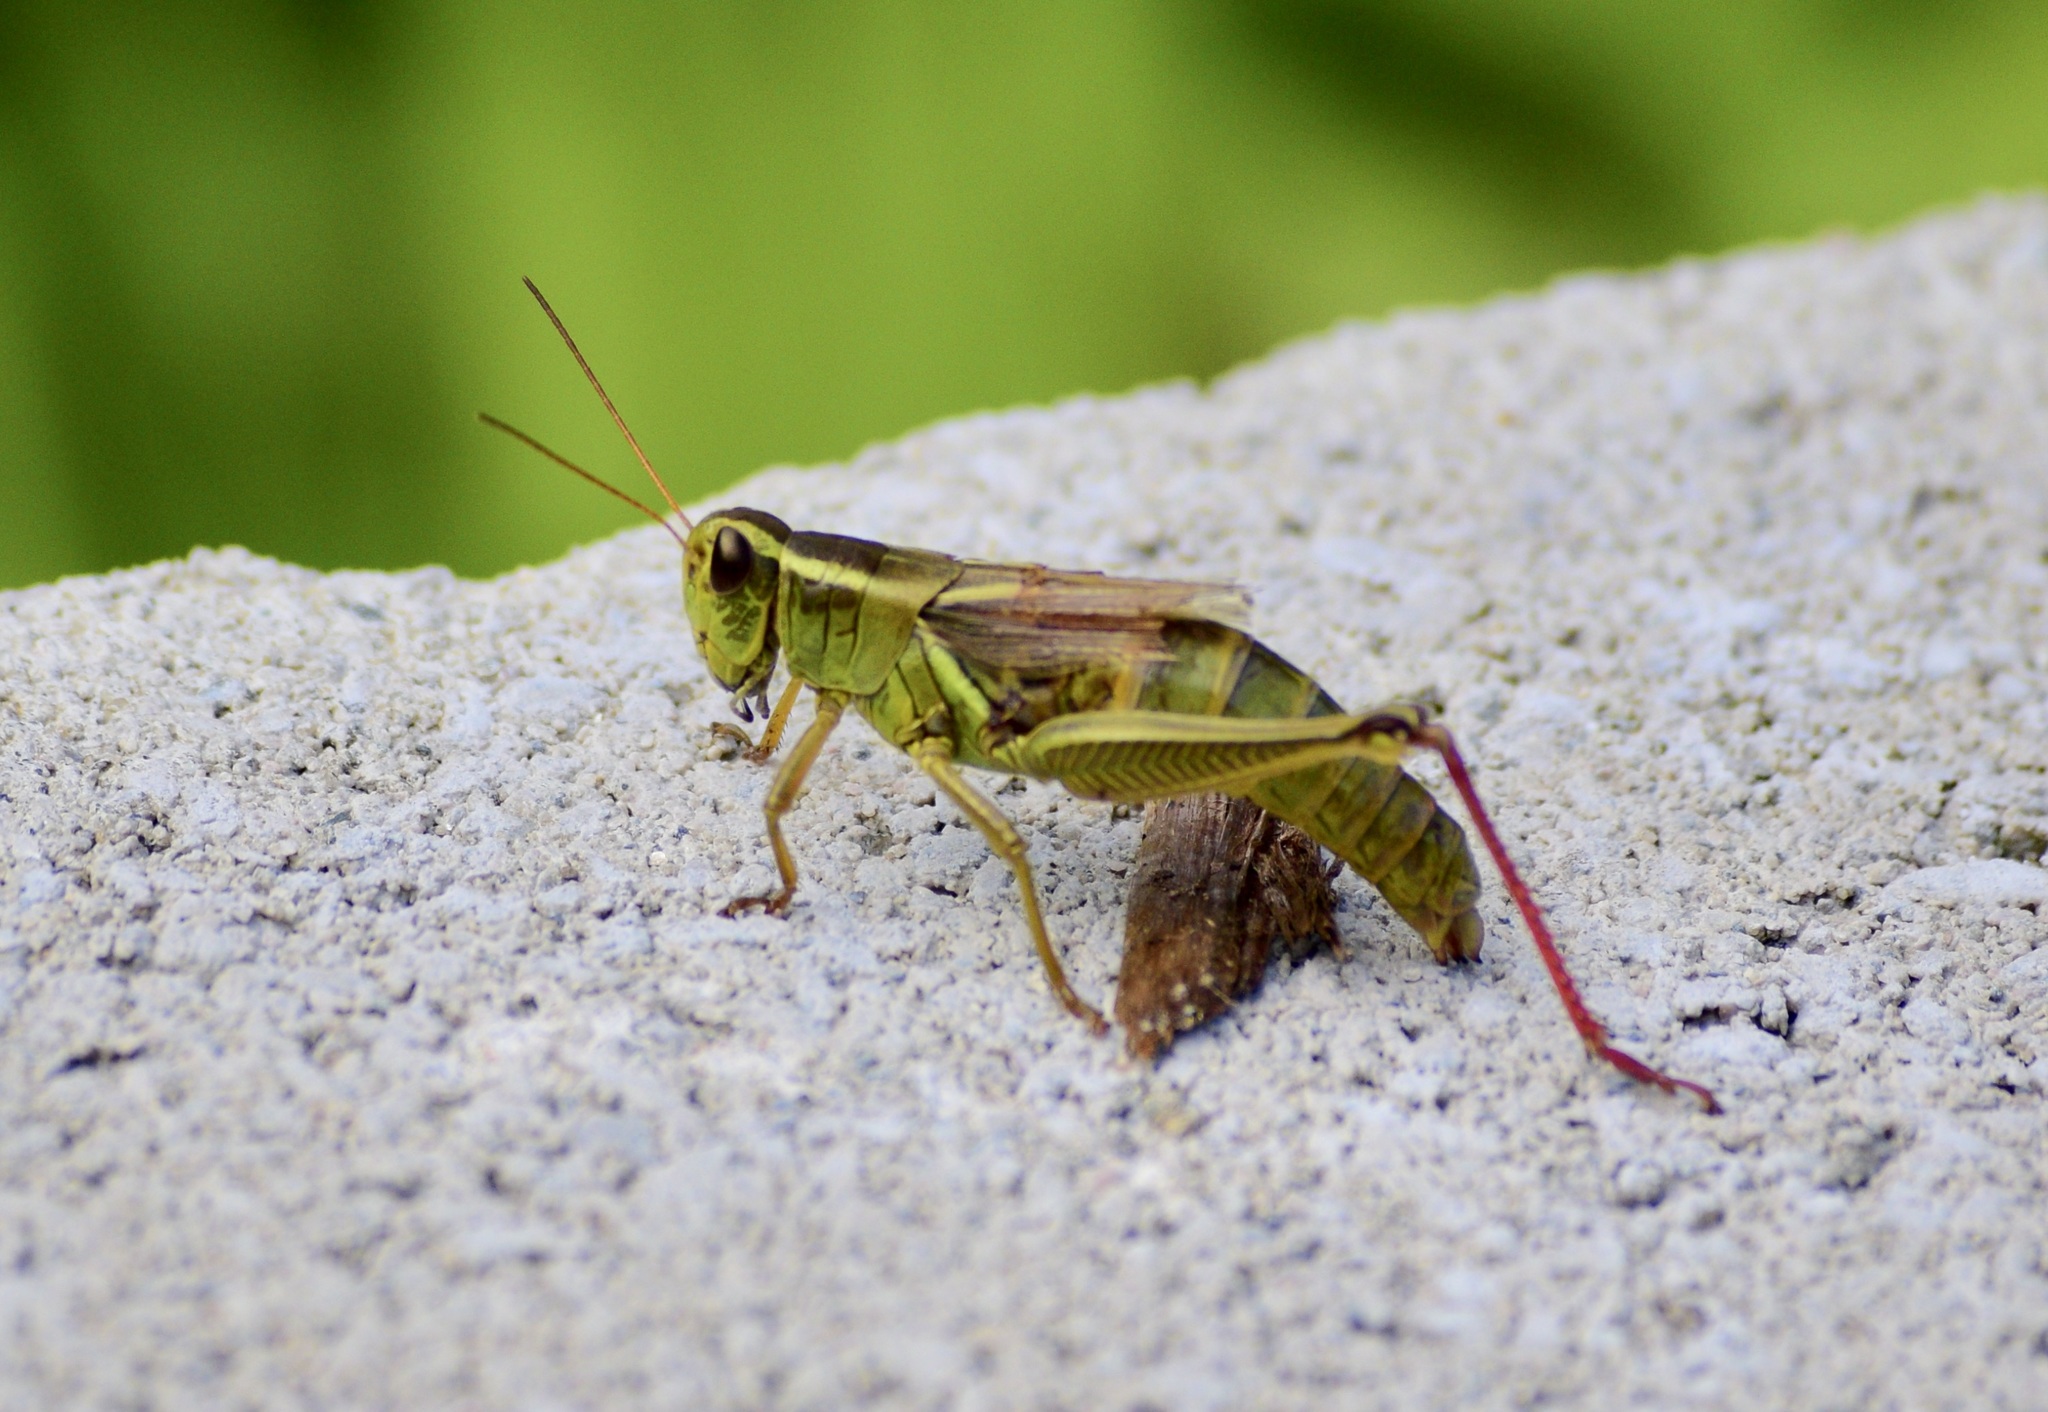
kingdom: Animalia
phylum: Arthropoda
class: Insecta
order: Orthoptera
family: Acrididae
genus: Melanoplus
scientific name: Melanoplus bivittatus
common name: Two-striped grasshopper
